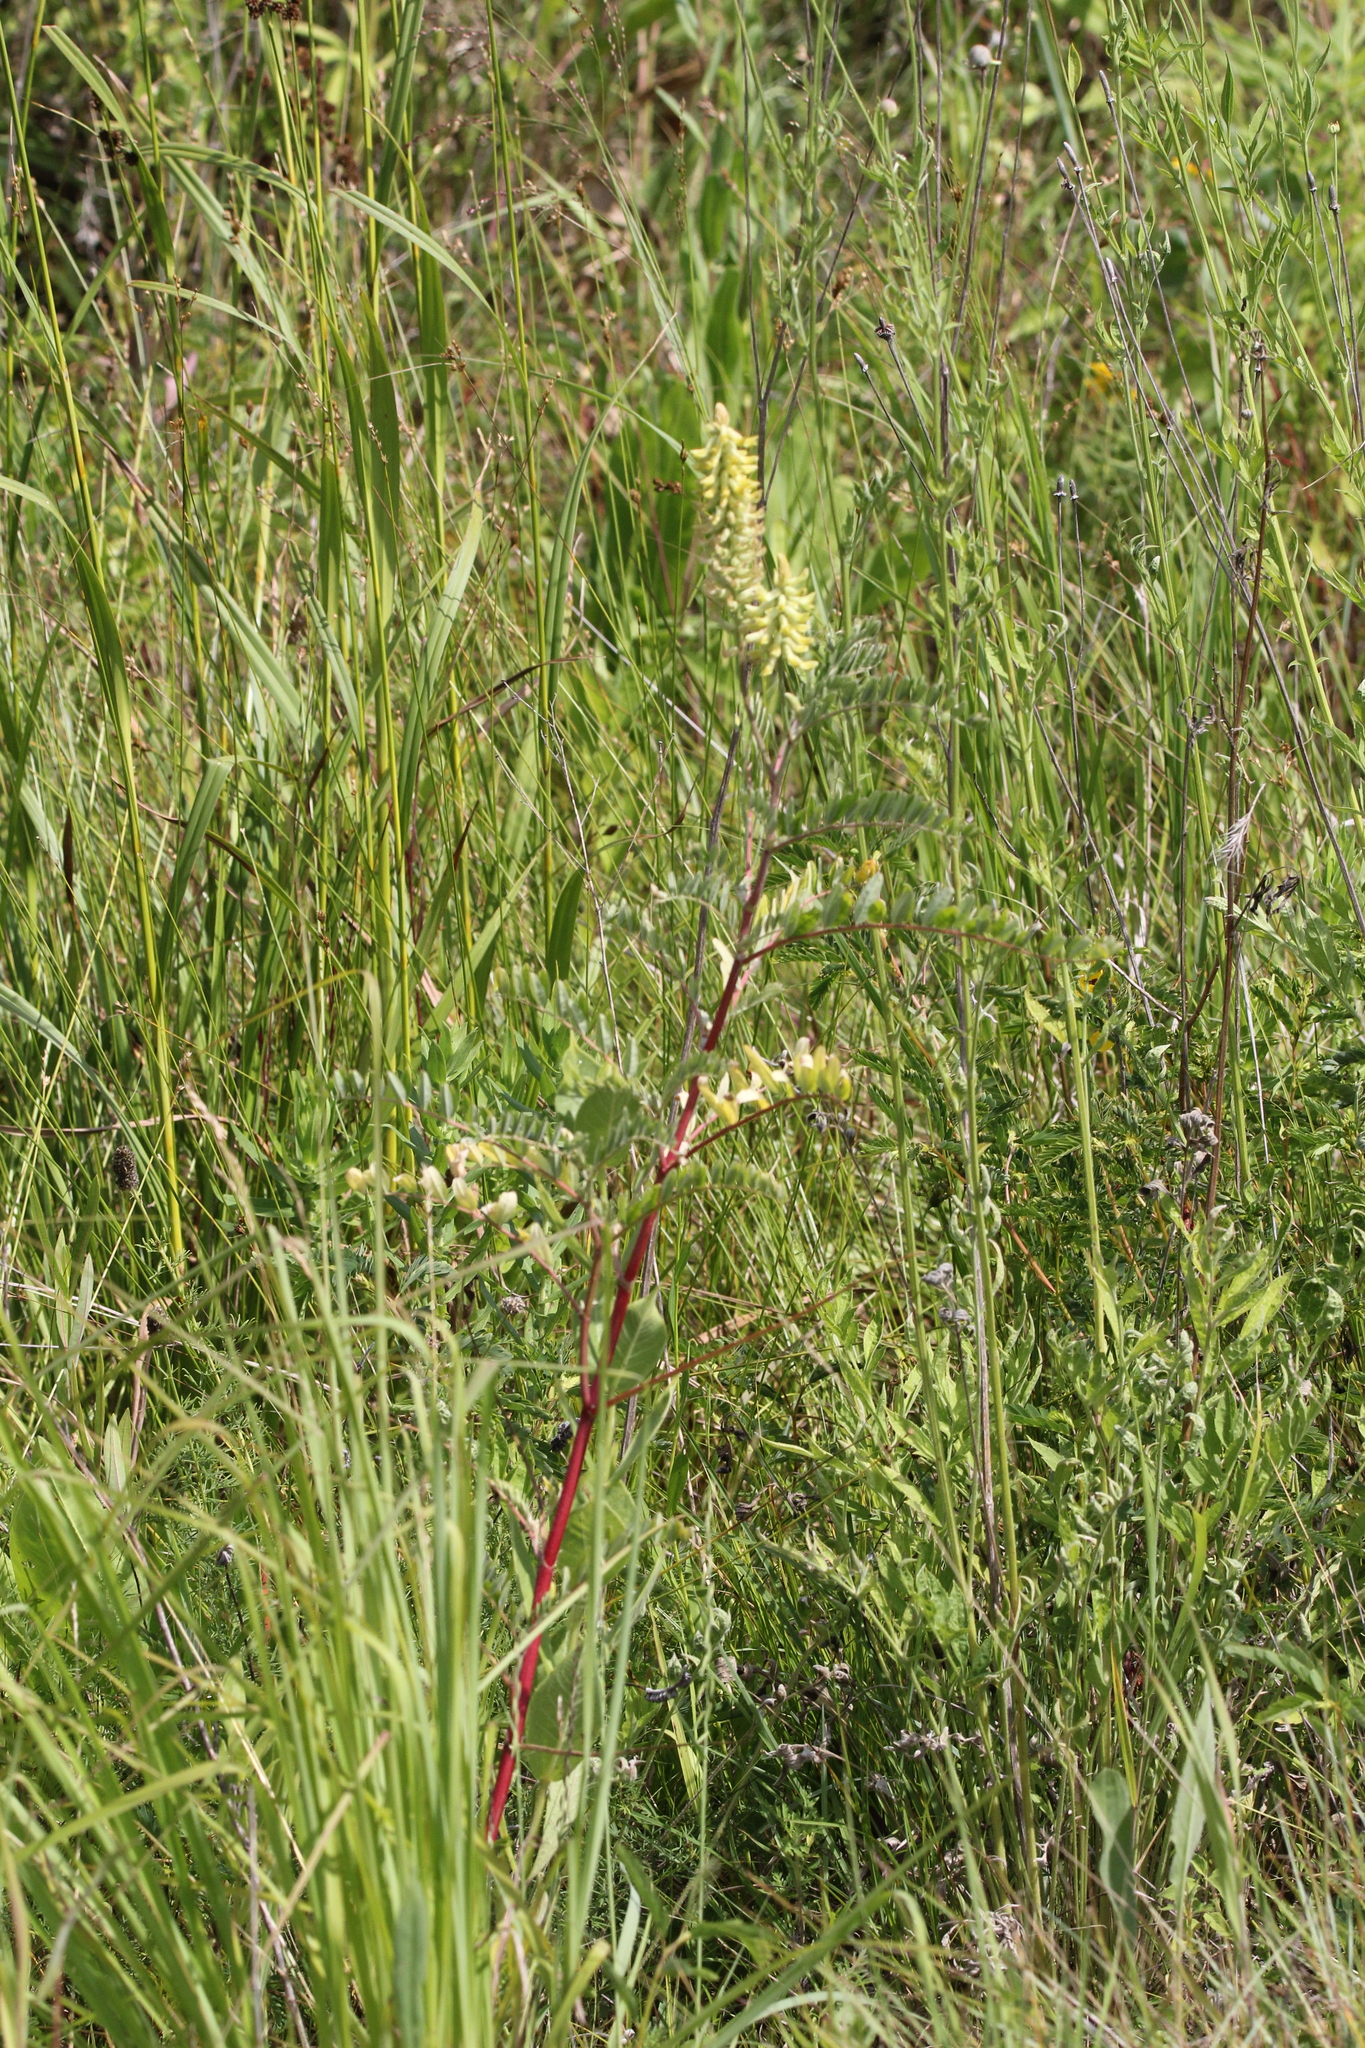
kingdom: Plantae
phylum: Tracheophyta
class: Magnoliopsida
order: Fabales
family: Fabaceae
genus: Astragalus
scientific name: Astragalus canadensis
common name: Canada milk-vetch
